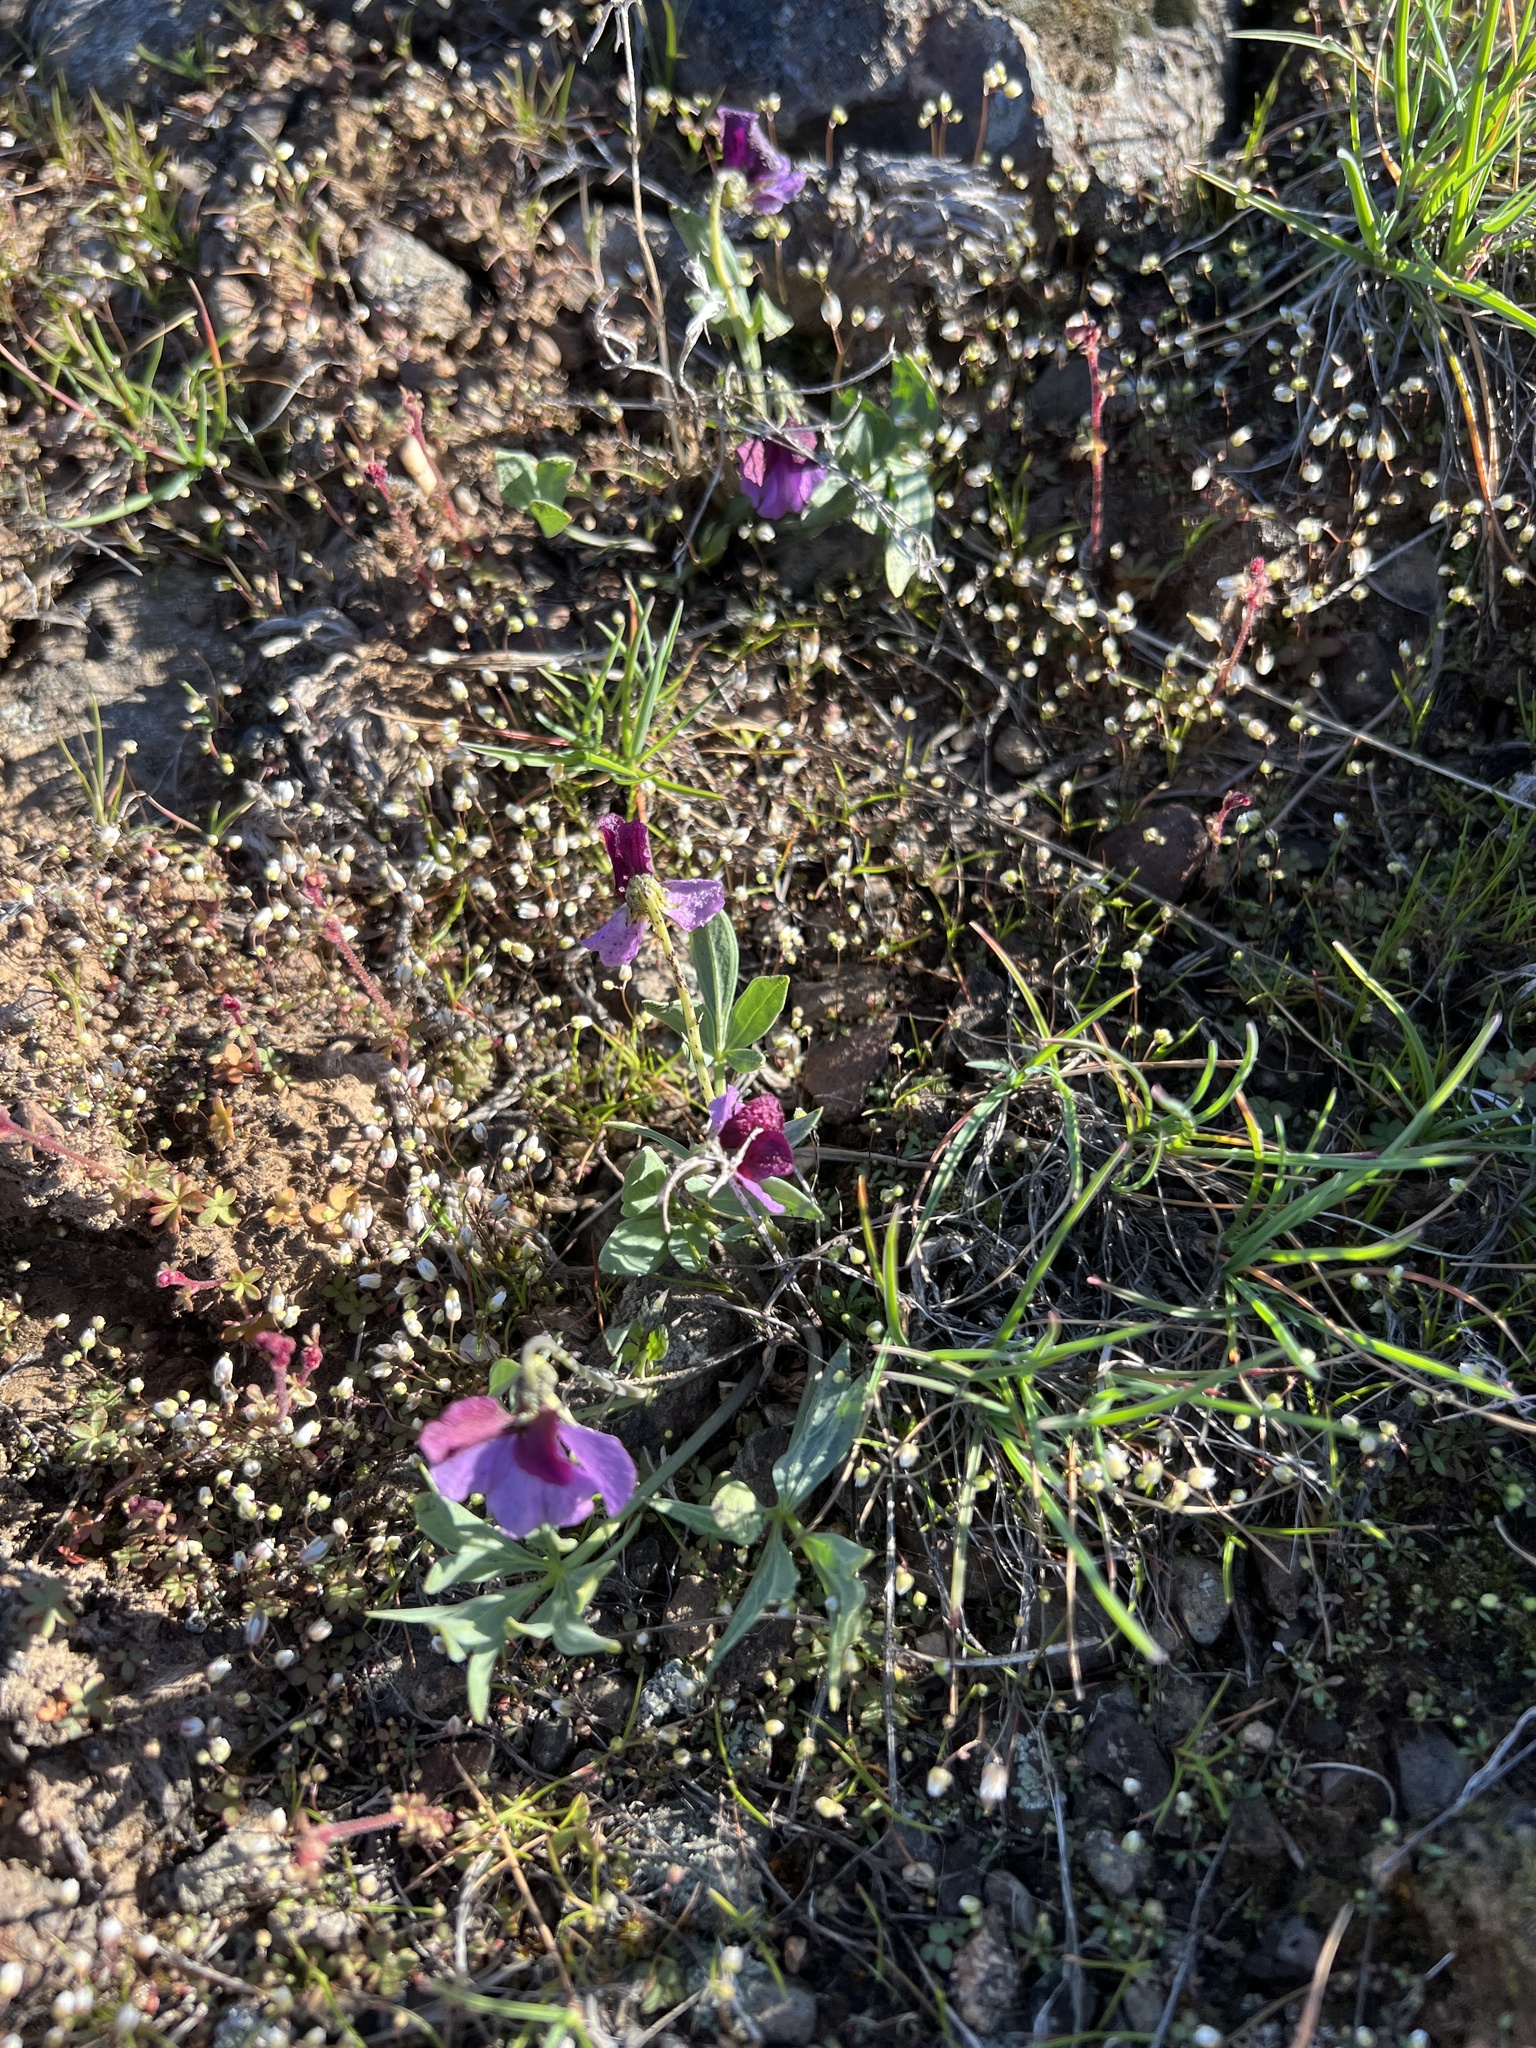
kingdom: Plantae
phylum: Tracheophyta
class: Magnoliopsida
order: Malpighiales
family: Violaceae
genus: Viola
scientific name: Viola trinervata
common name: Sagebrush violet
